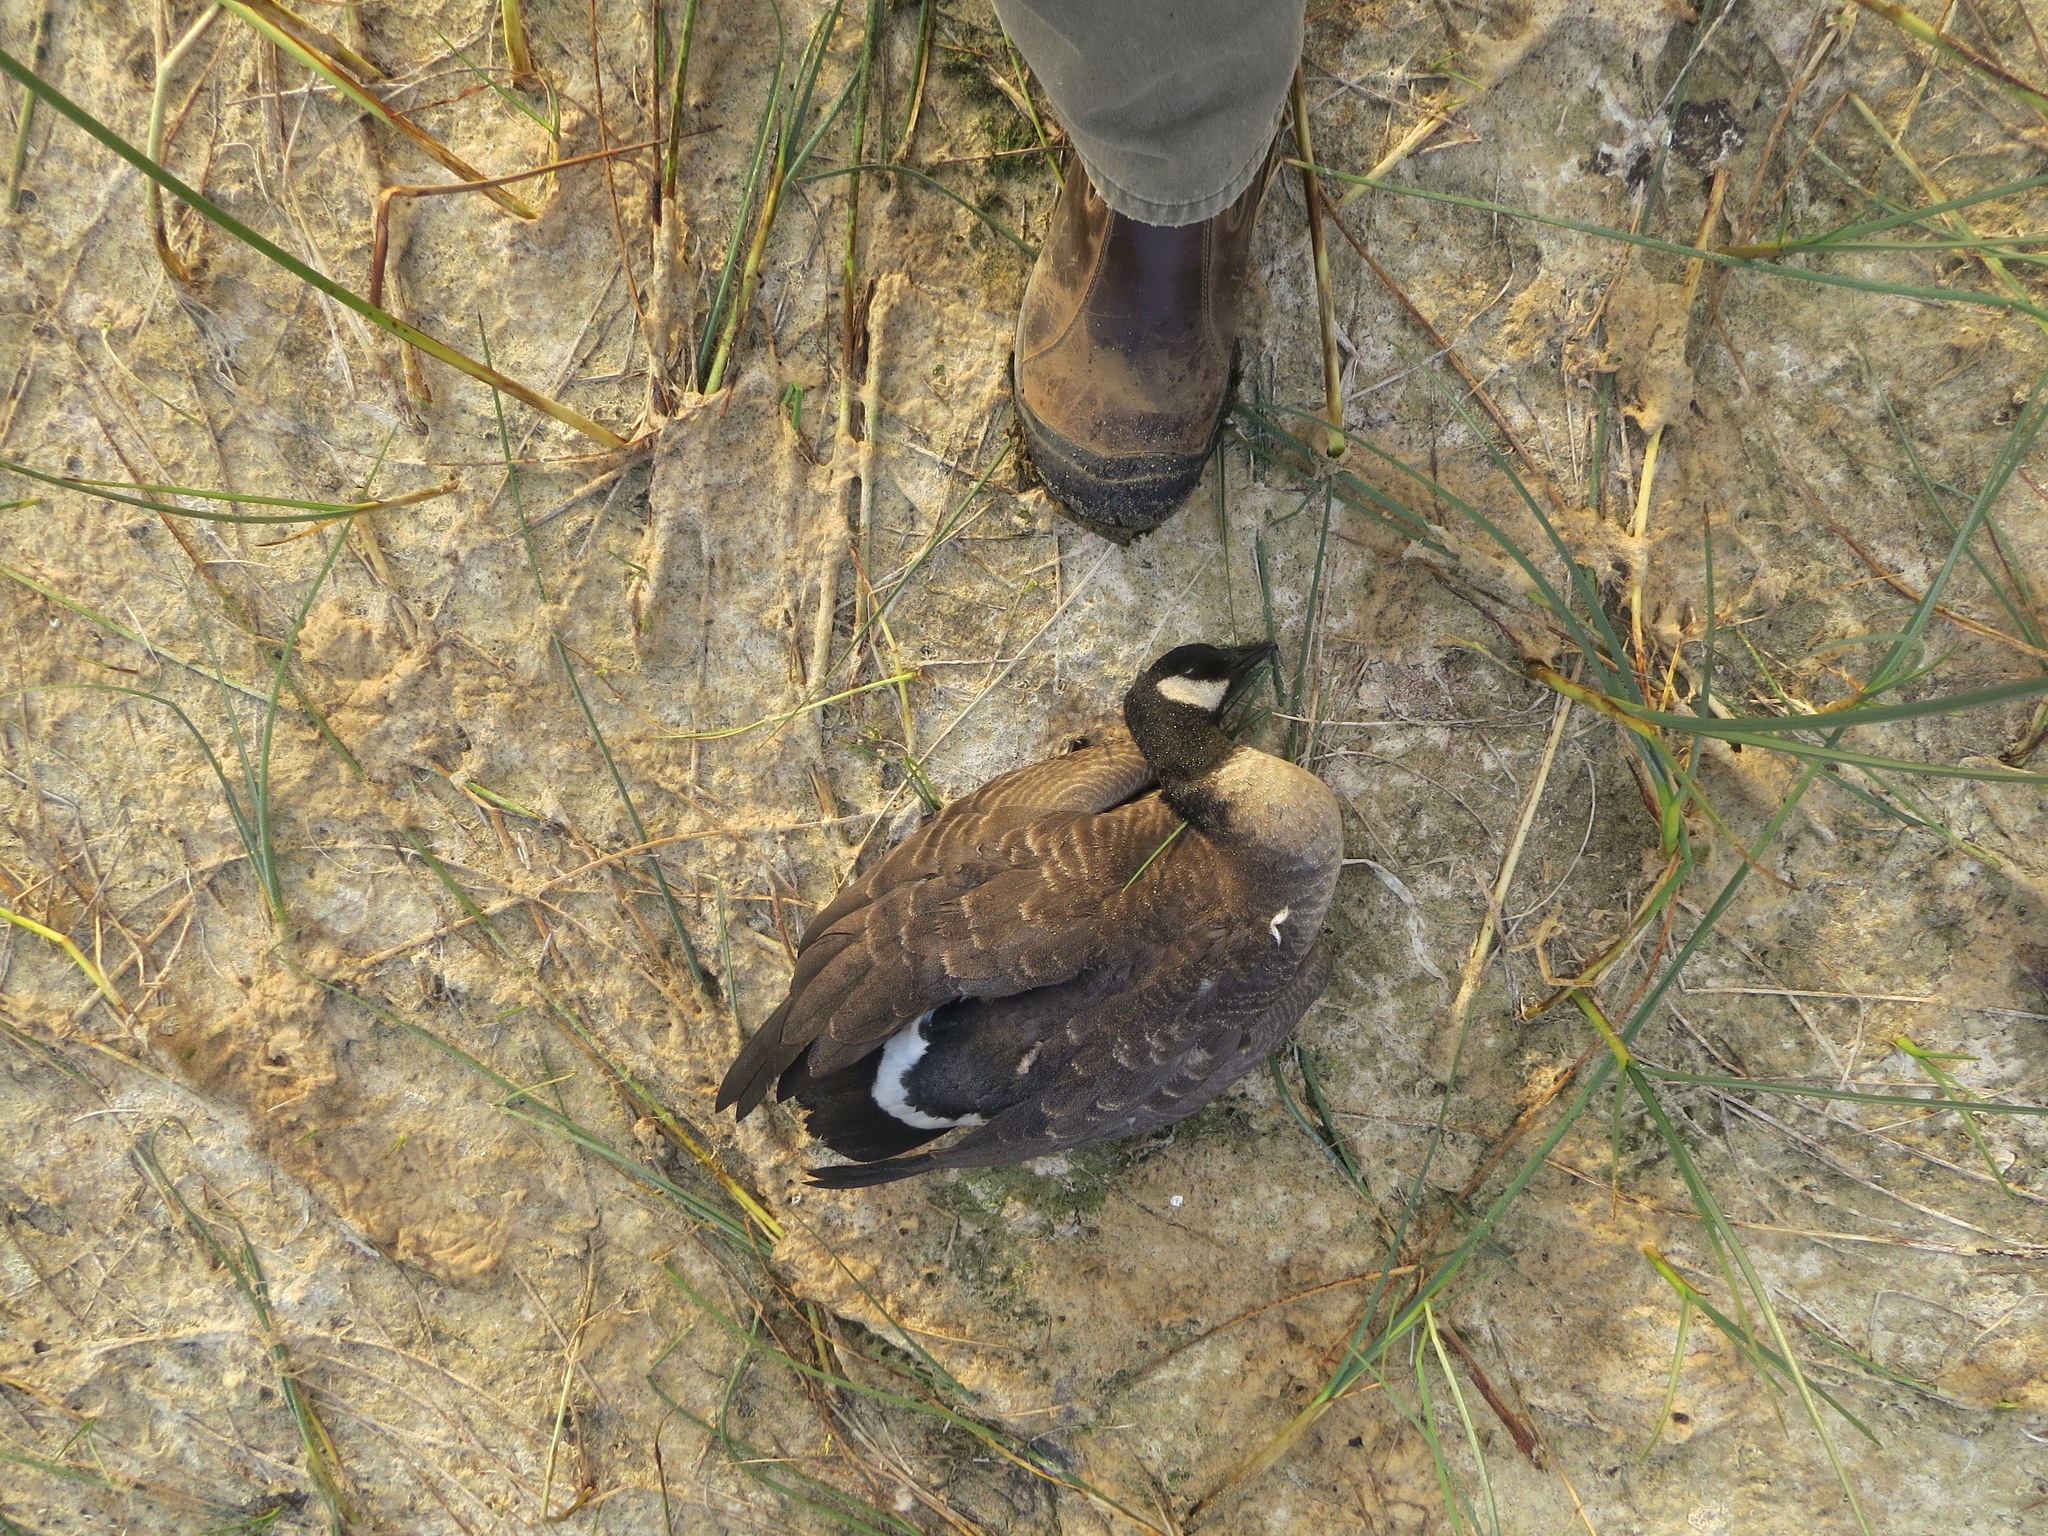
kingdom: Animalia
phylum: Chordata
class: Aves
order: Anseriformes
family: Anatidae
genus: Branta
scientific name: Branta hutchinsii
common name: Cackling goose
